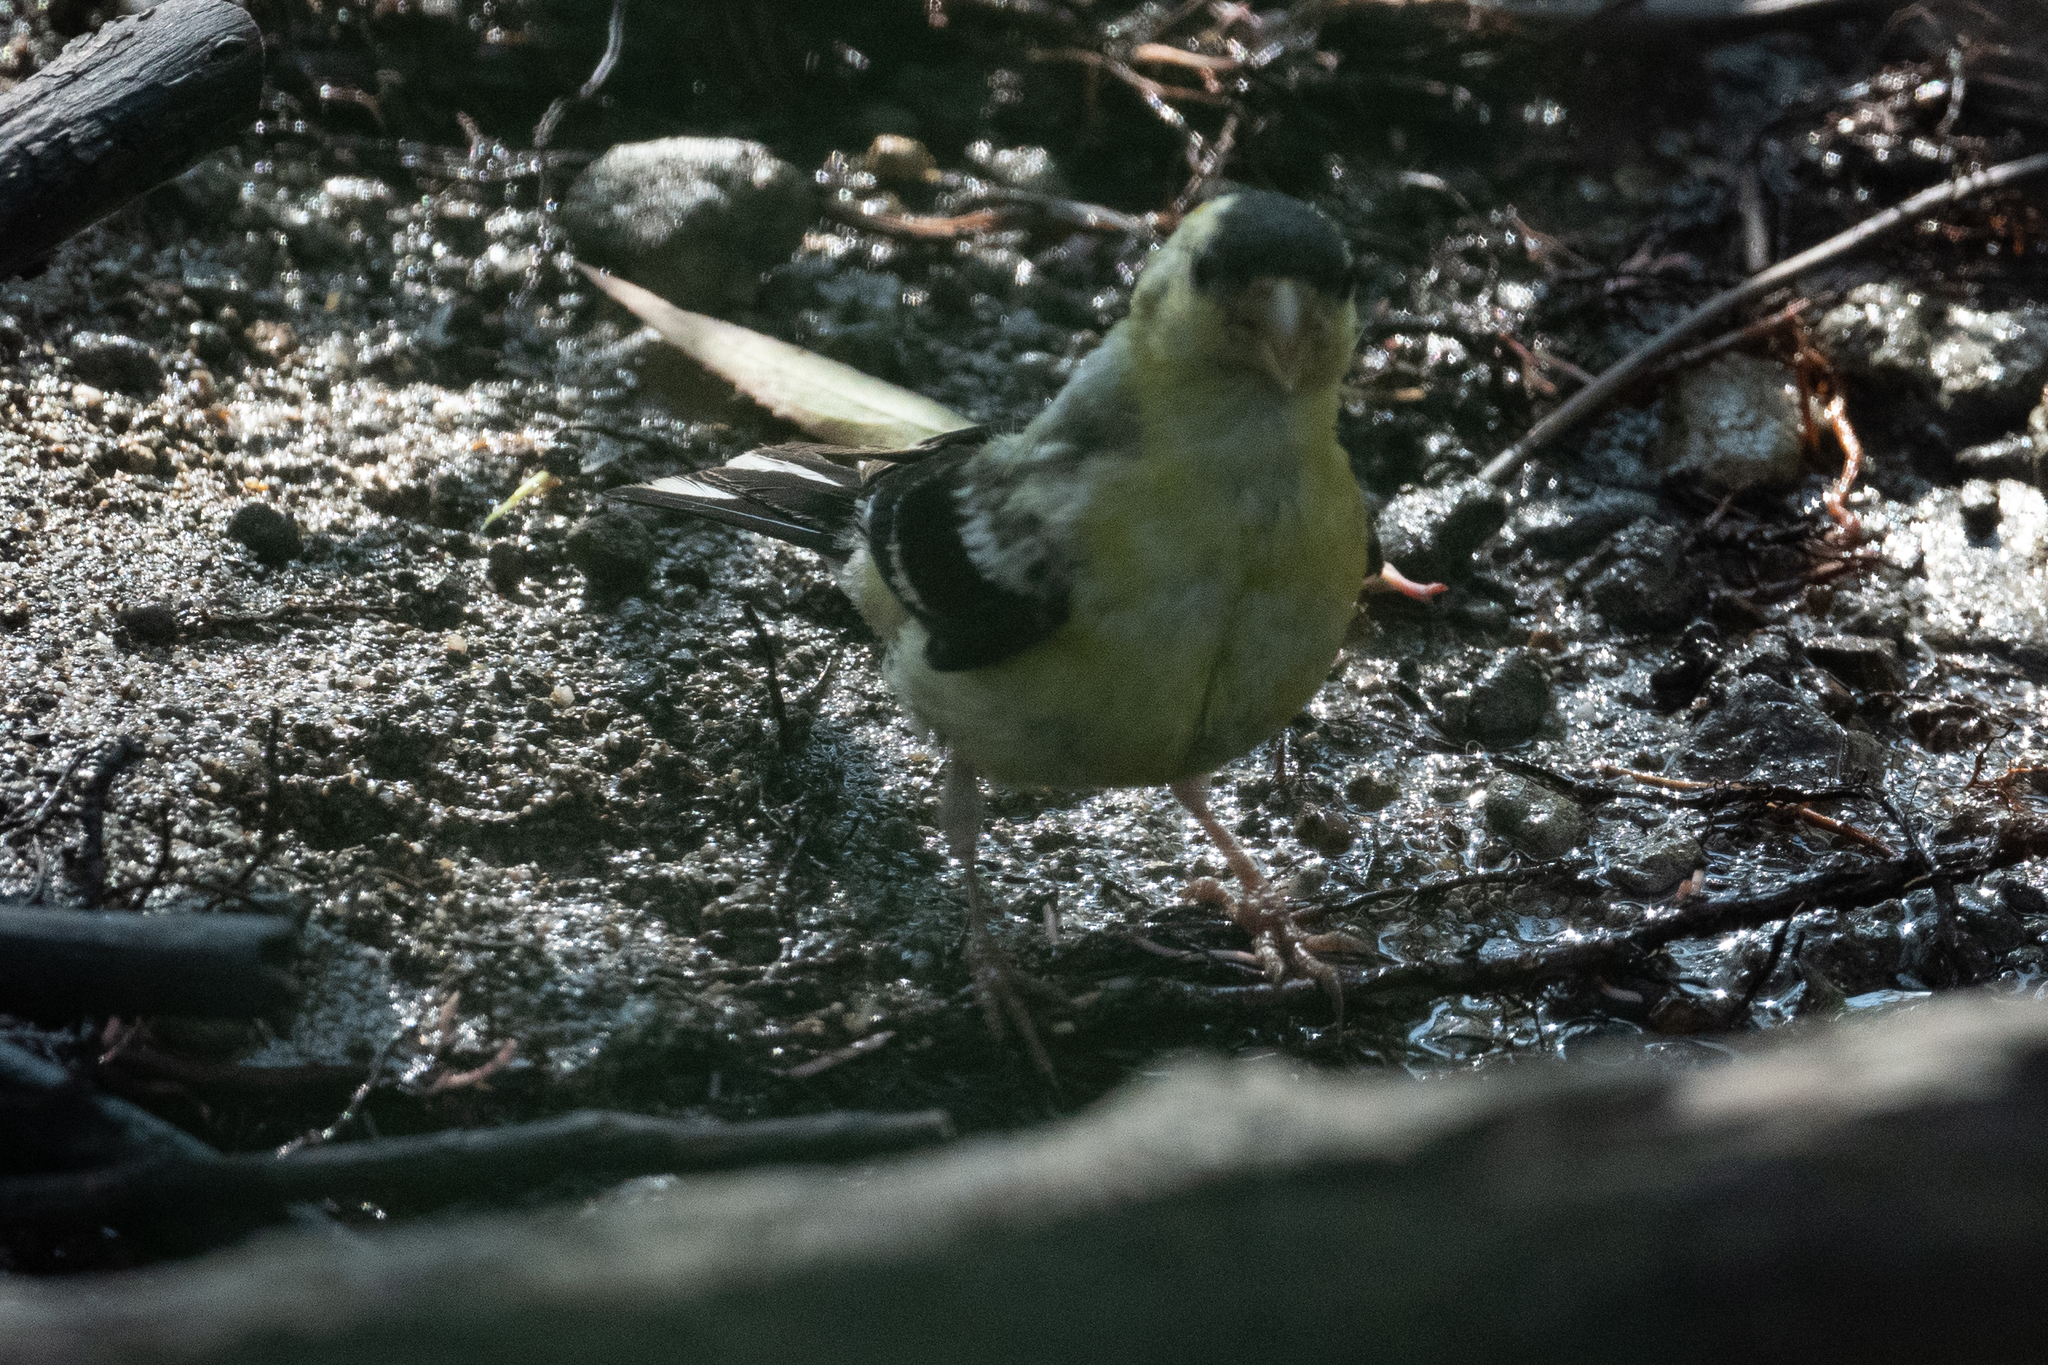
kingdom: Animalia
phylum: Chordata
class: Aves
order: Passeriformes
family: Fringillidae
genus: Spinus
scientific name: Spinus tristis
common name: American goldfinch
